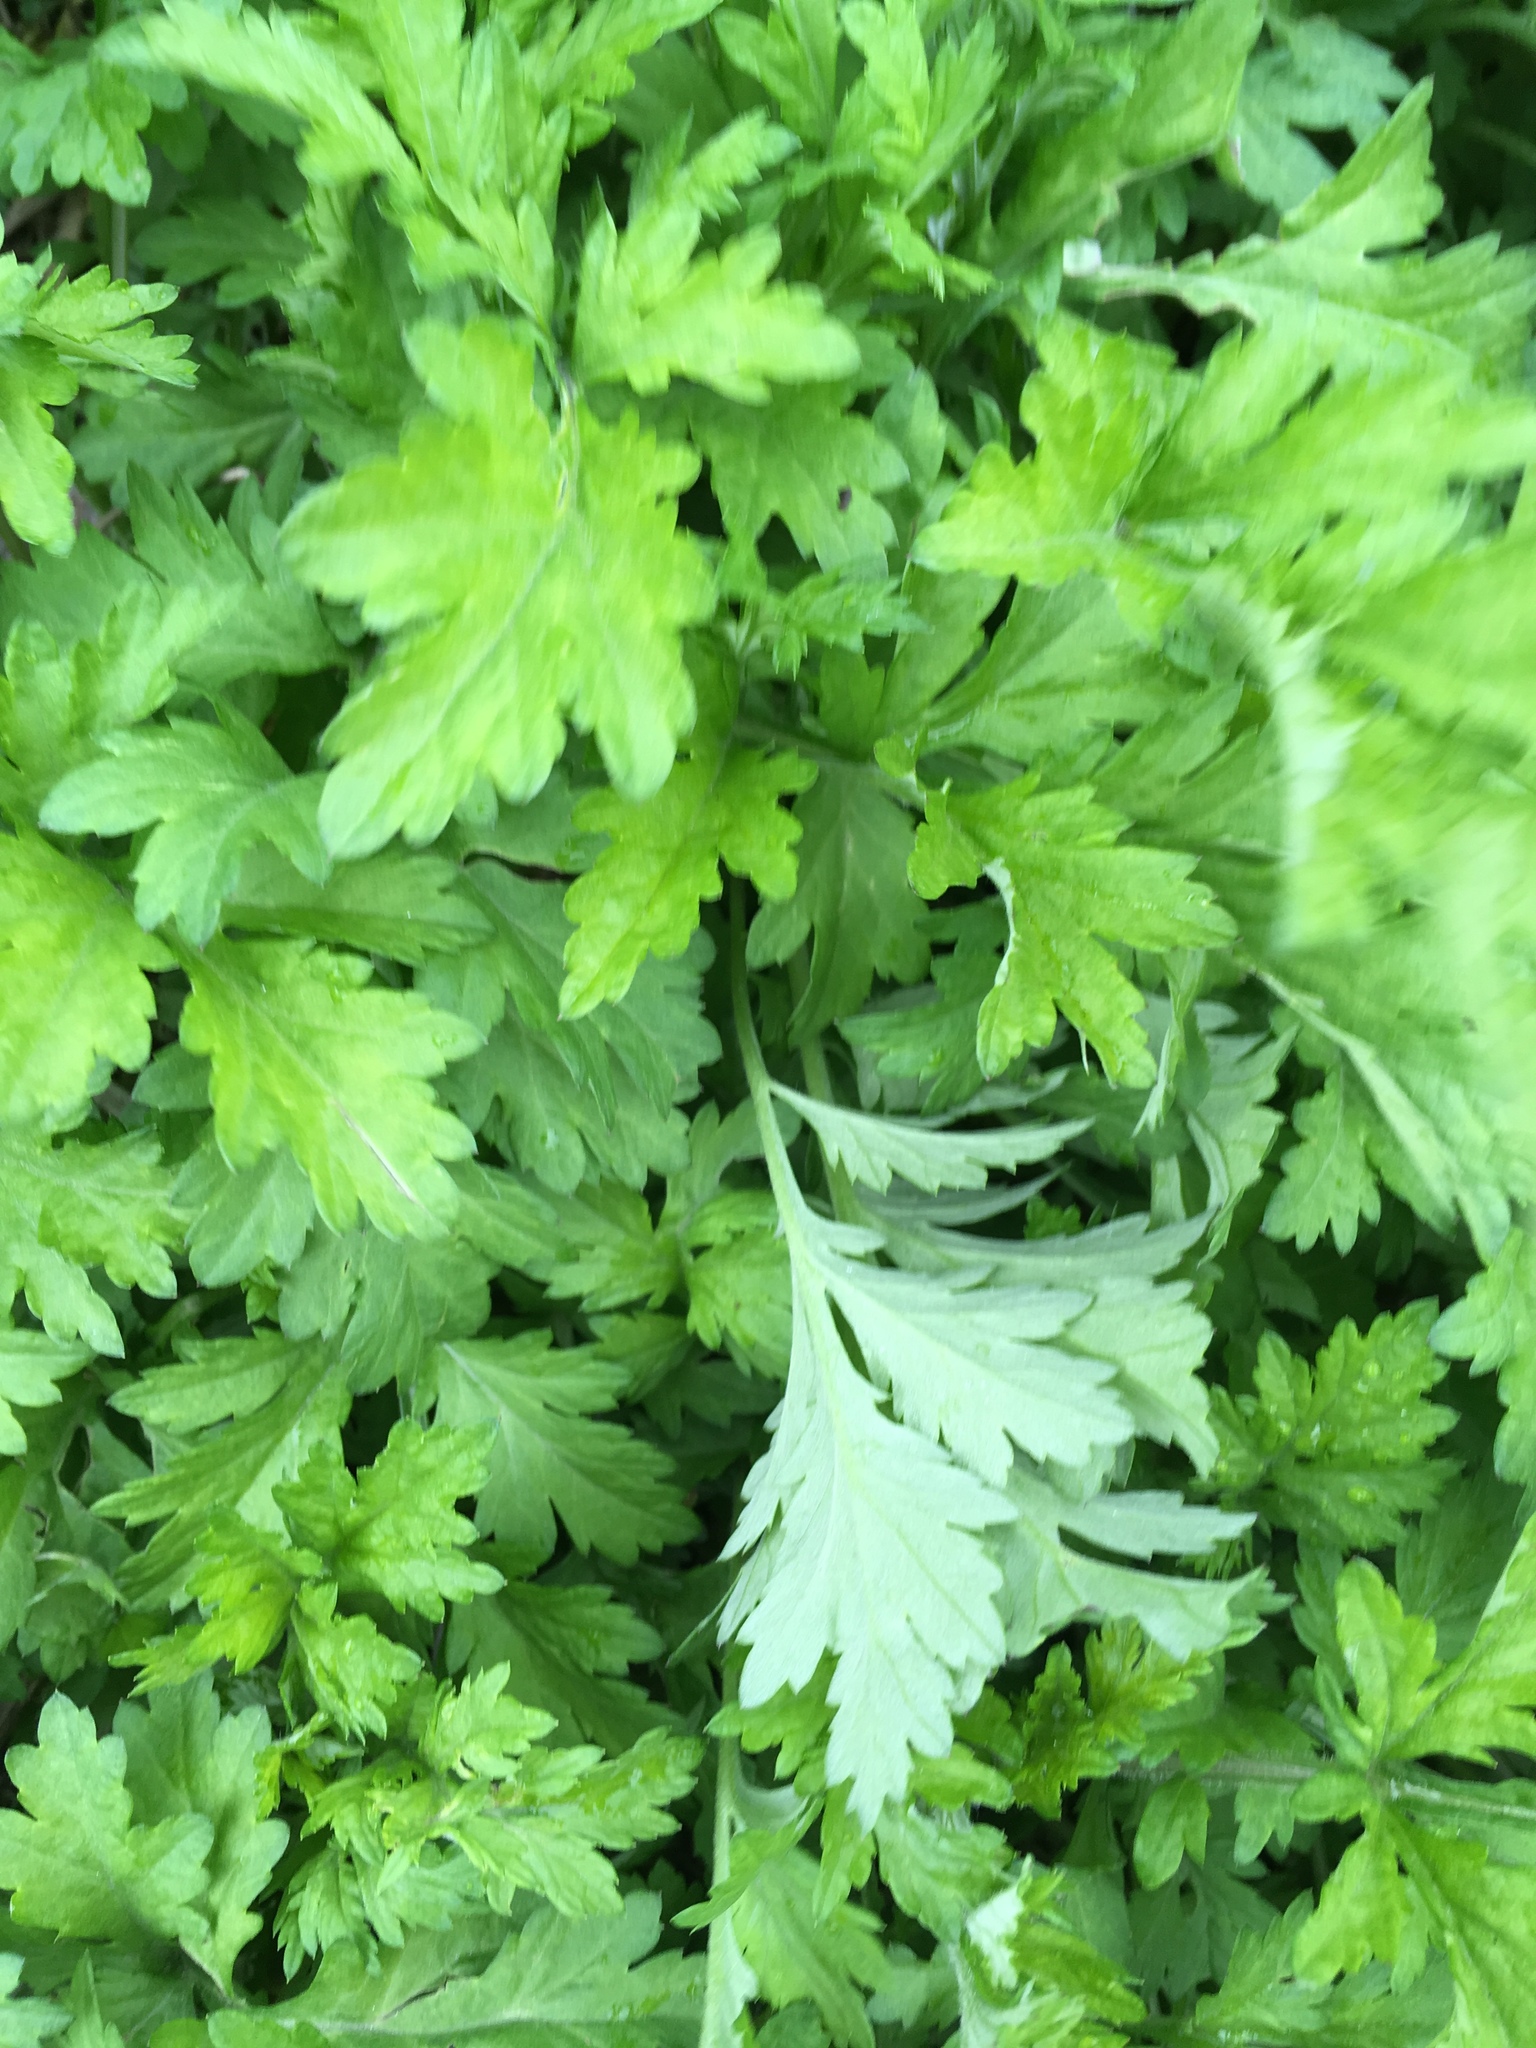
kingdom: Plantae
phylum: Tracheophyta
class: Magnoliopsida
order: Asterales
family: Asteraceae
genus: Artemisia
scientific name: Artemisia vulgaris
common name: Mugwort
